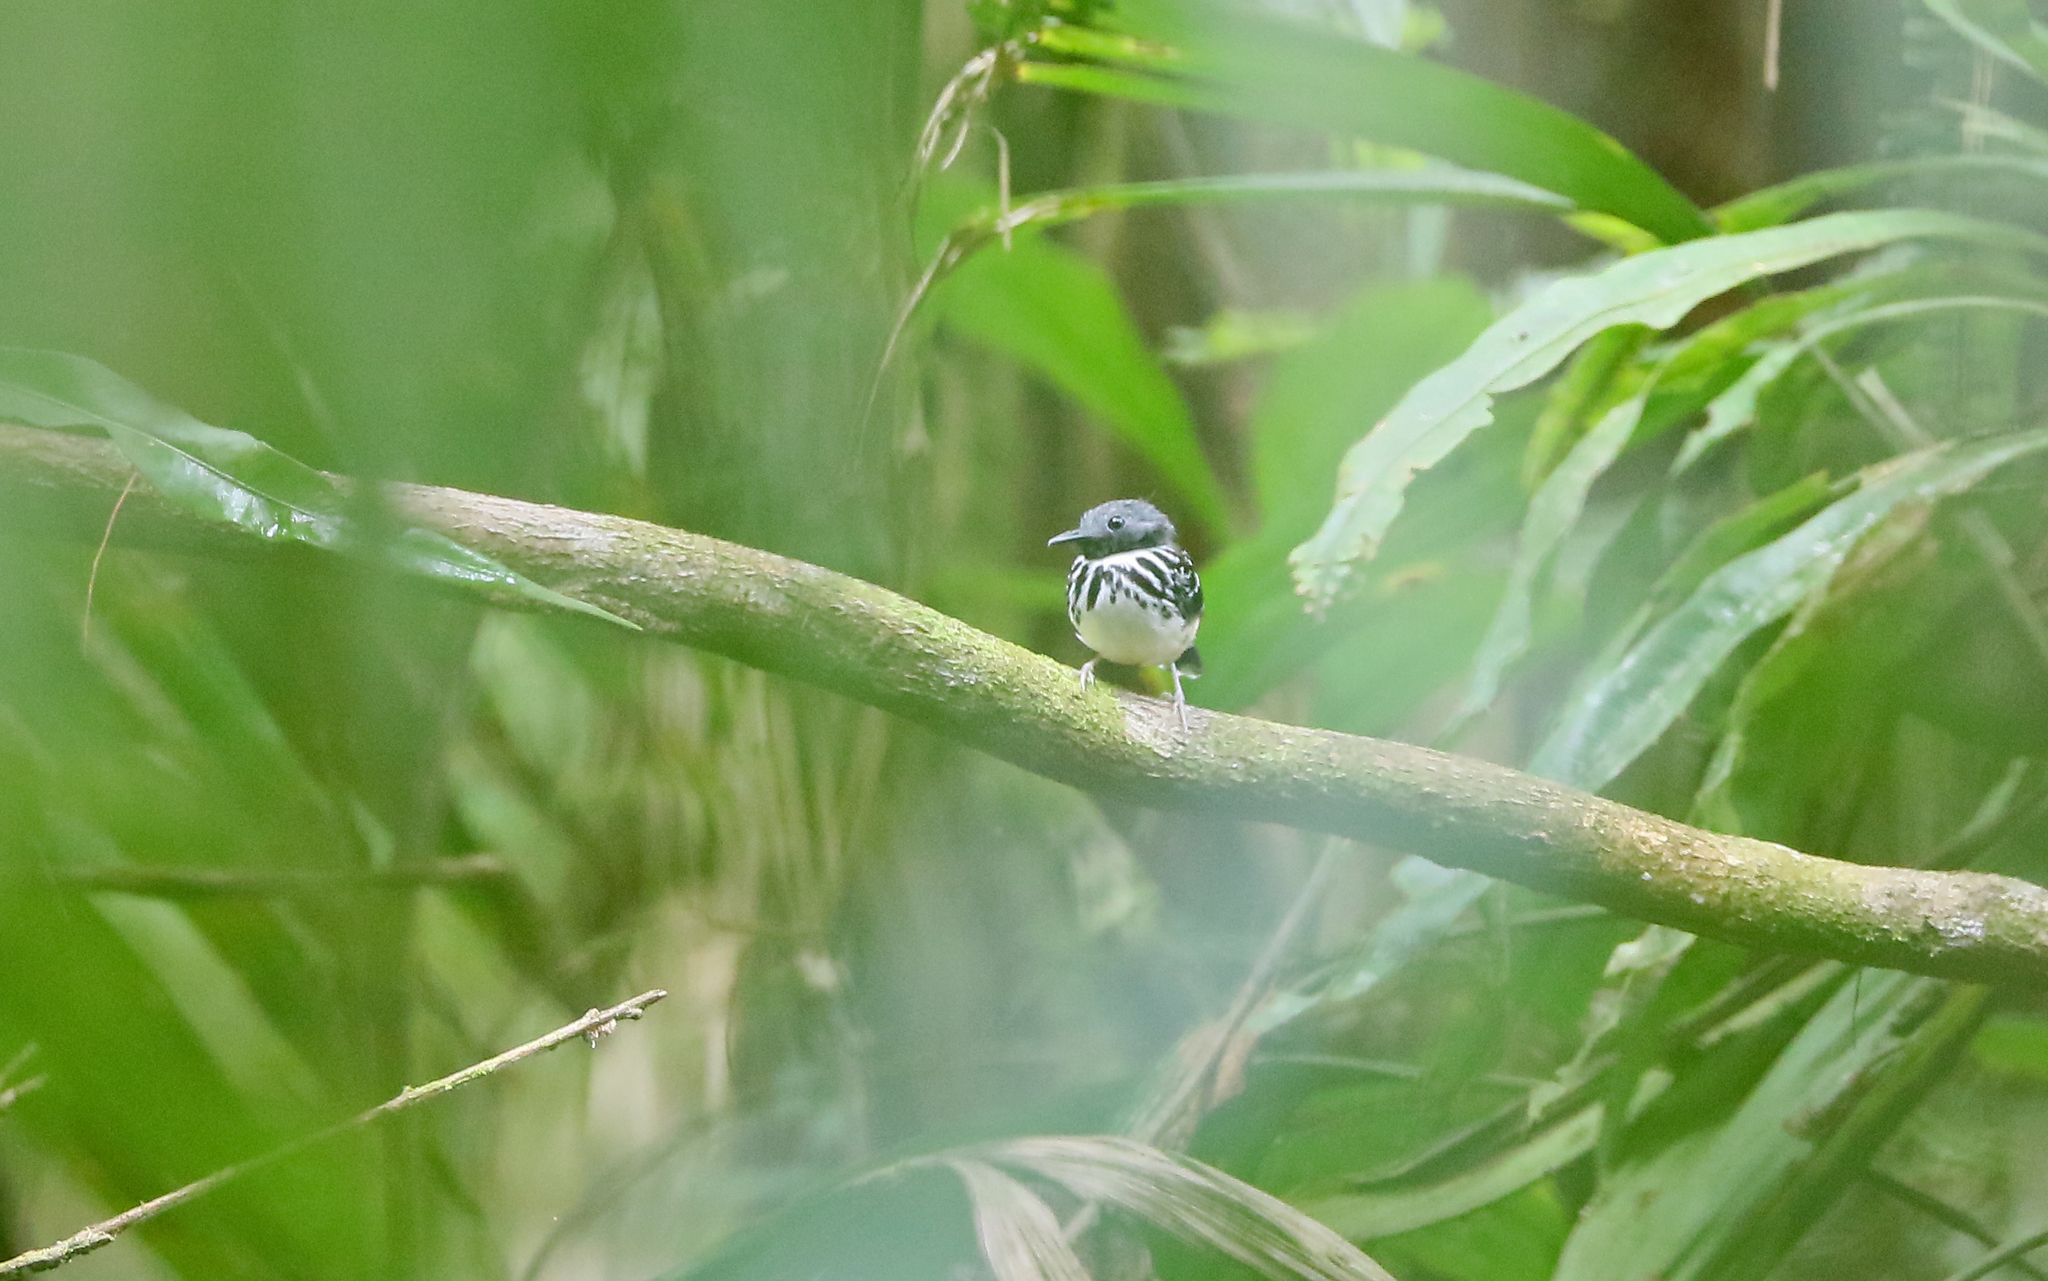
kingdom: Animalia
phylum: Chordata
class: Aves
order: Passeriformes
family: Thamnophilidae
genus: Hylophylax
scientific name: Hylophylax punctulatus
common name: Dot-backed antbird
